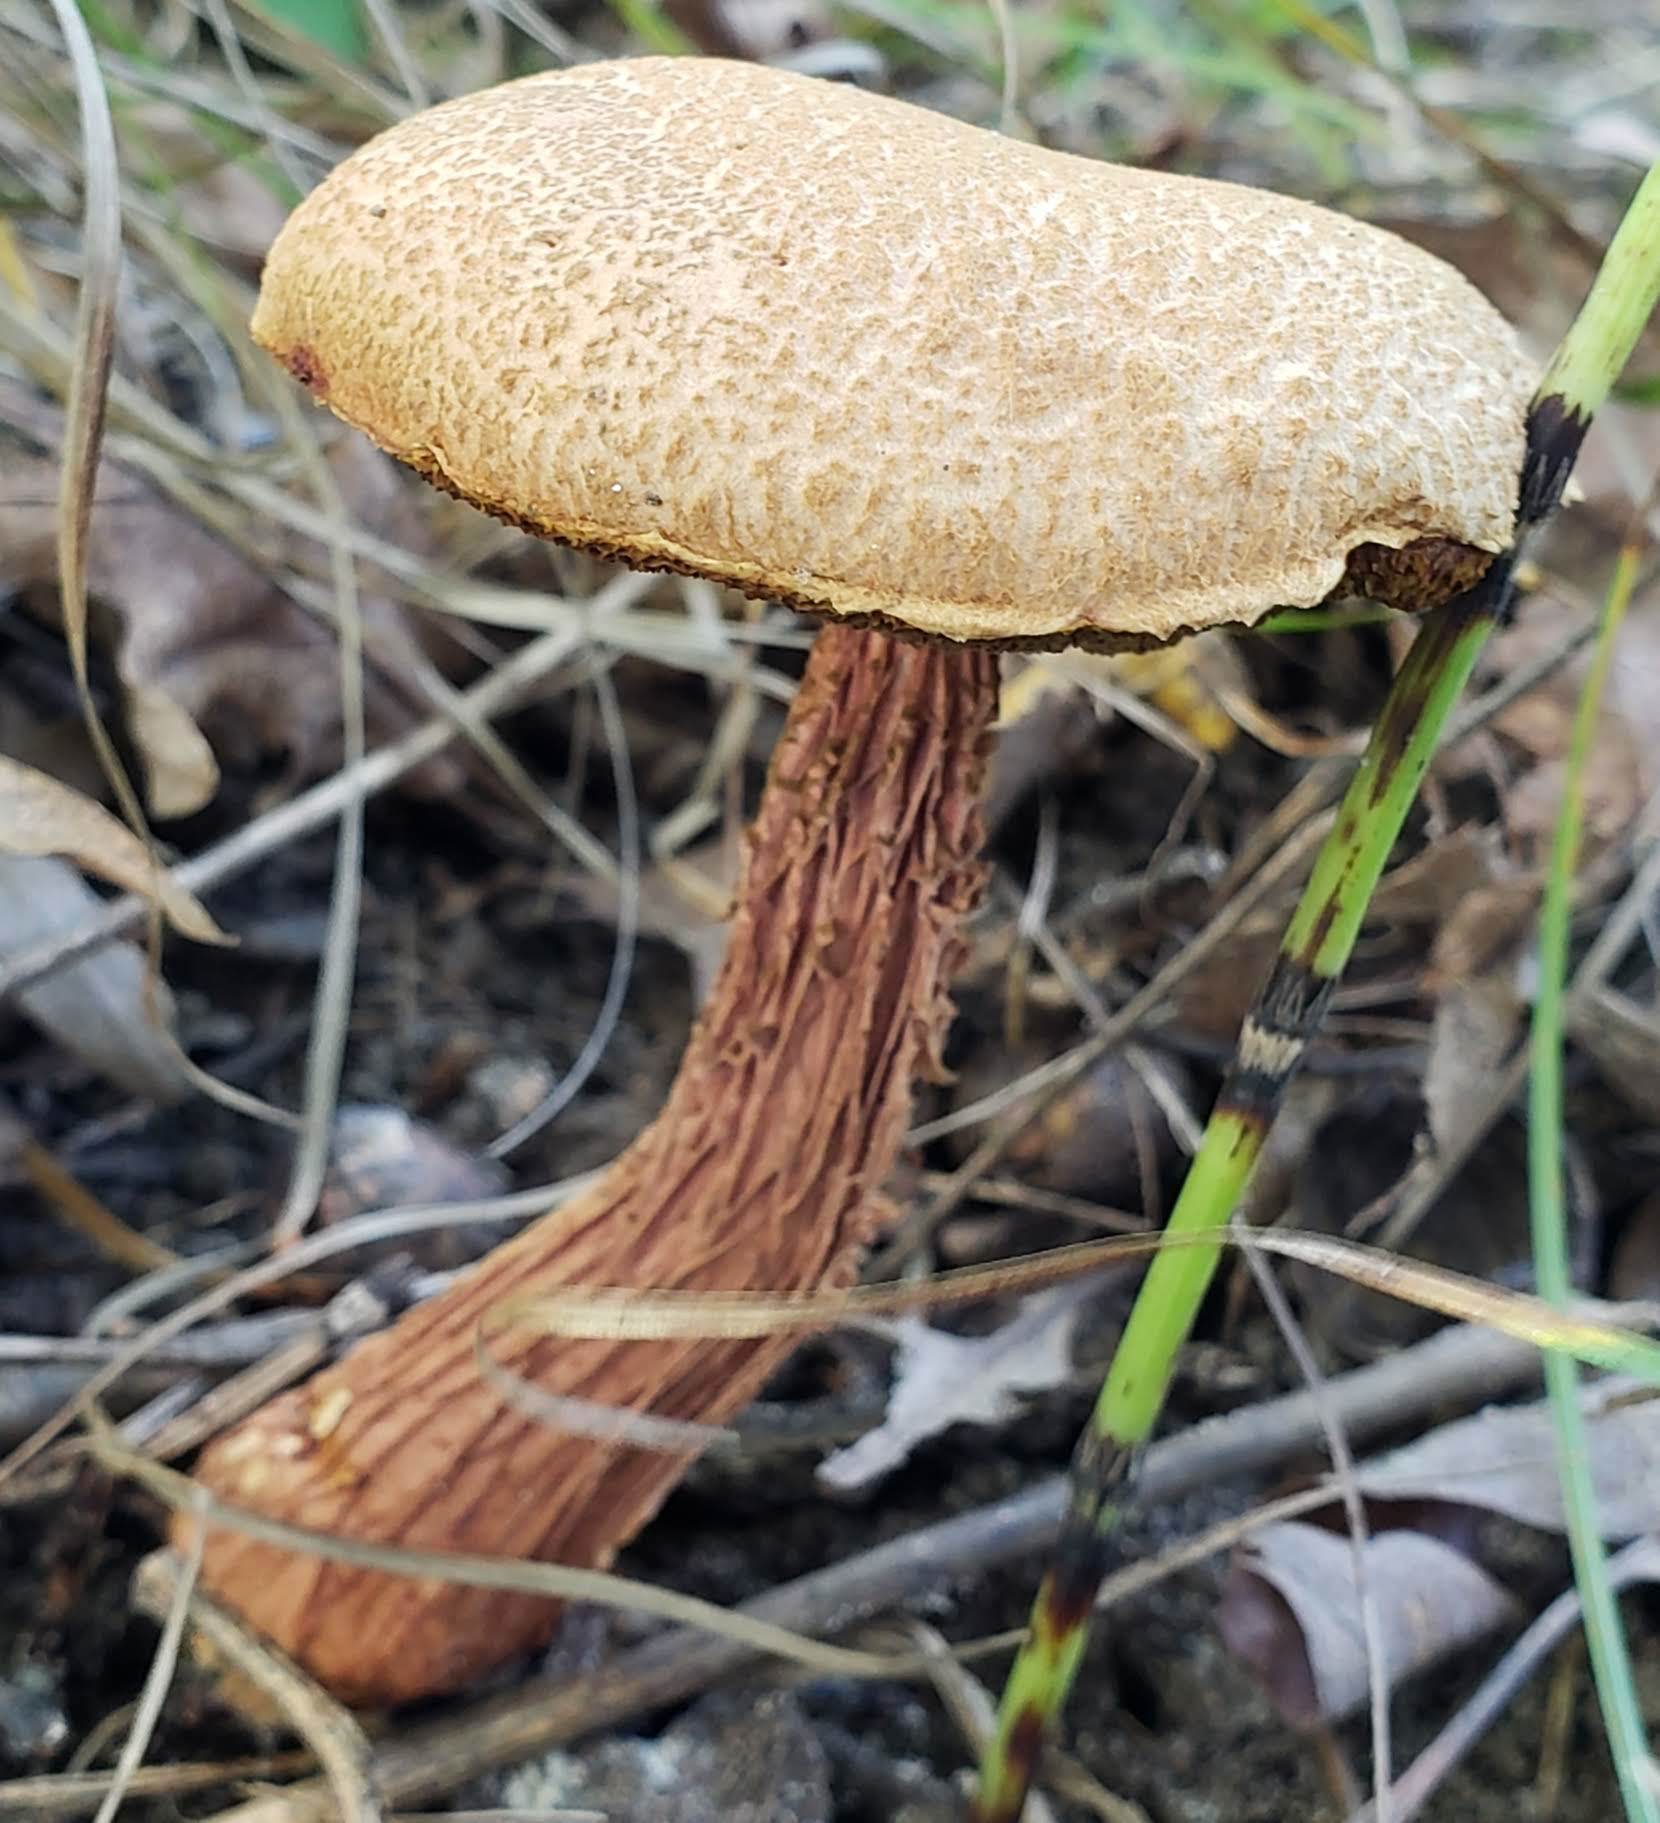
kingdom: Fungi
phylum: Basidiomycota
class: Agaricomycetes
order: Boletales
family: Boletaceae
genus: Aureoboletus
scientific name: Aureoboletus russellii
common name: Russell's bolete
